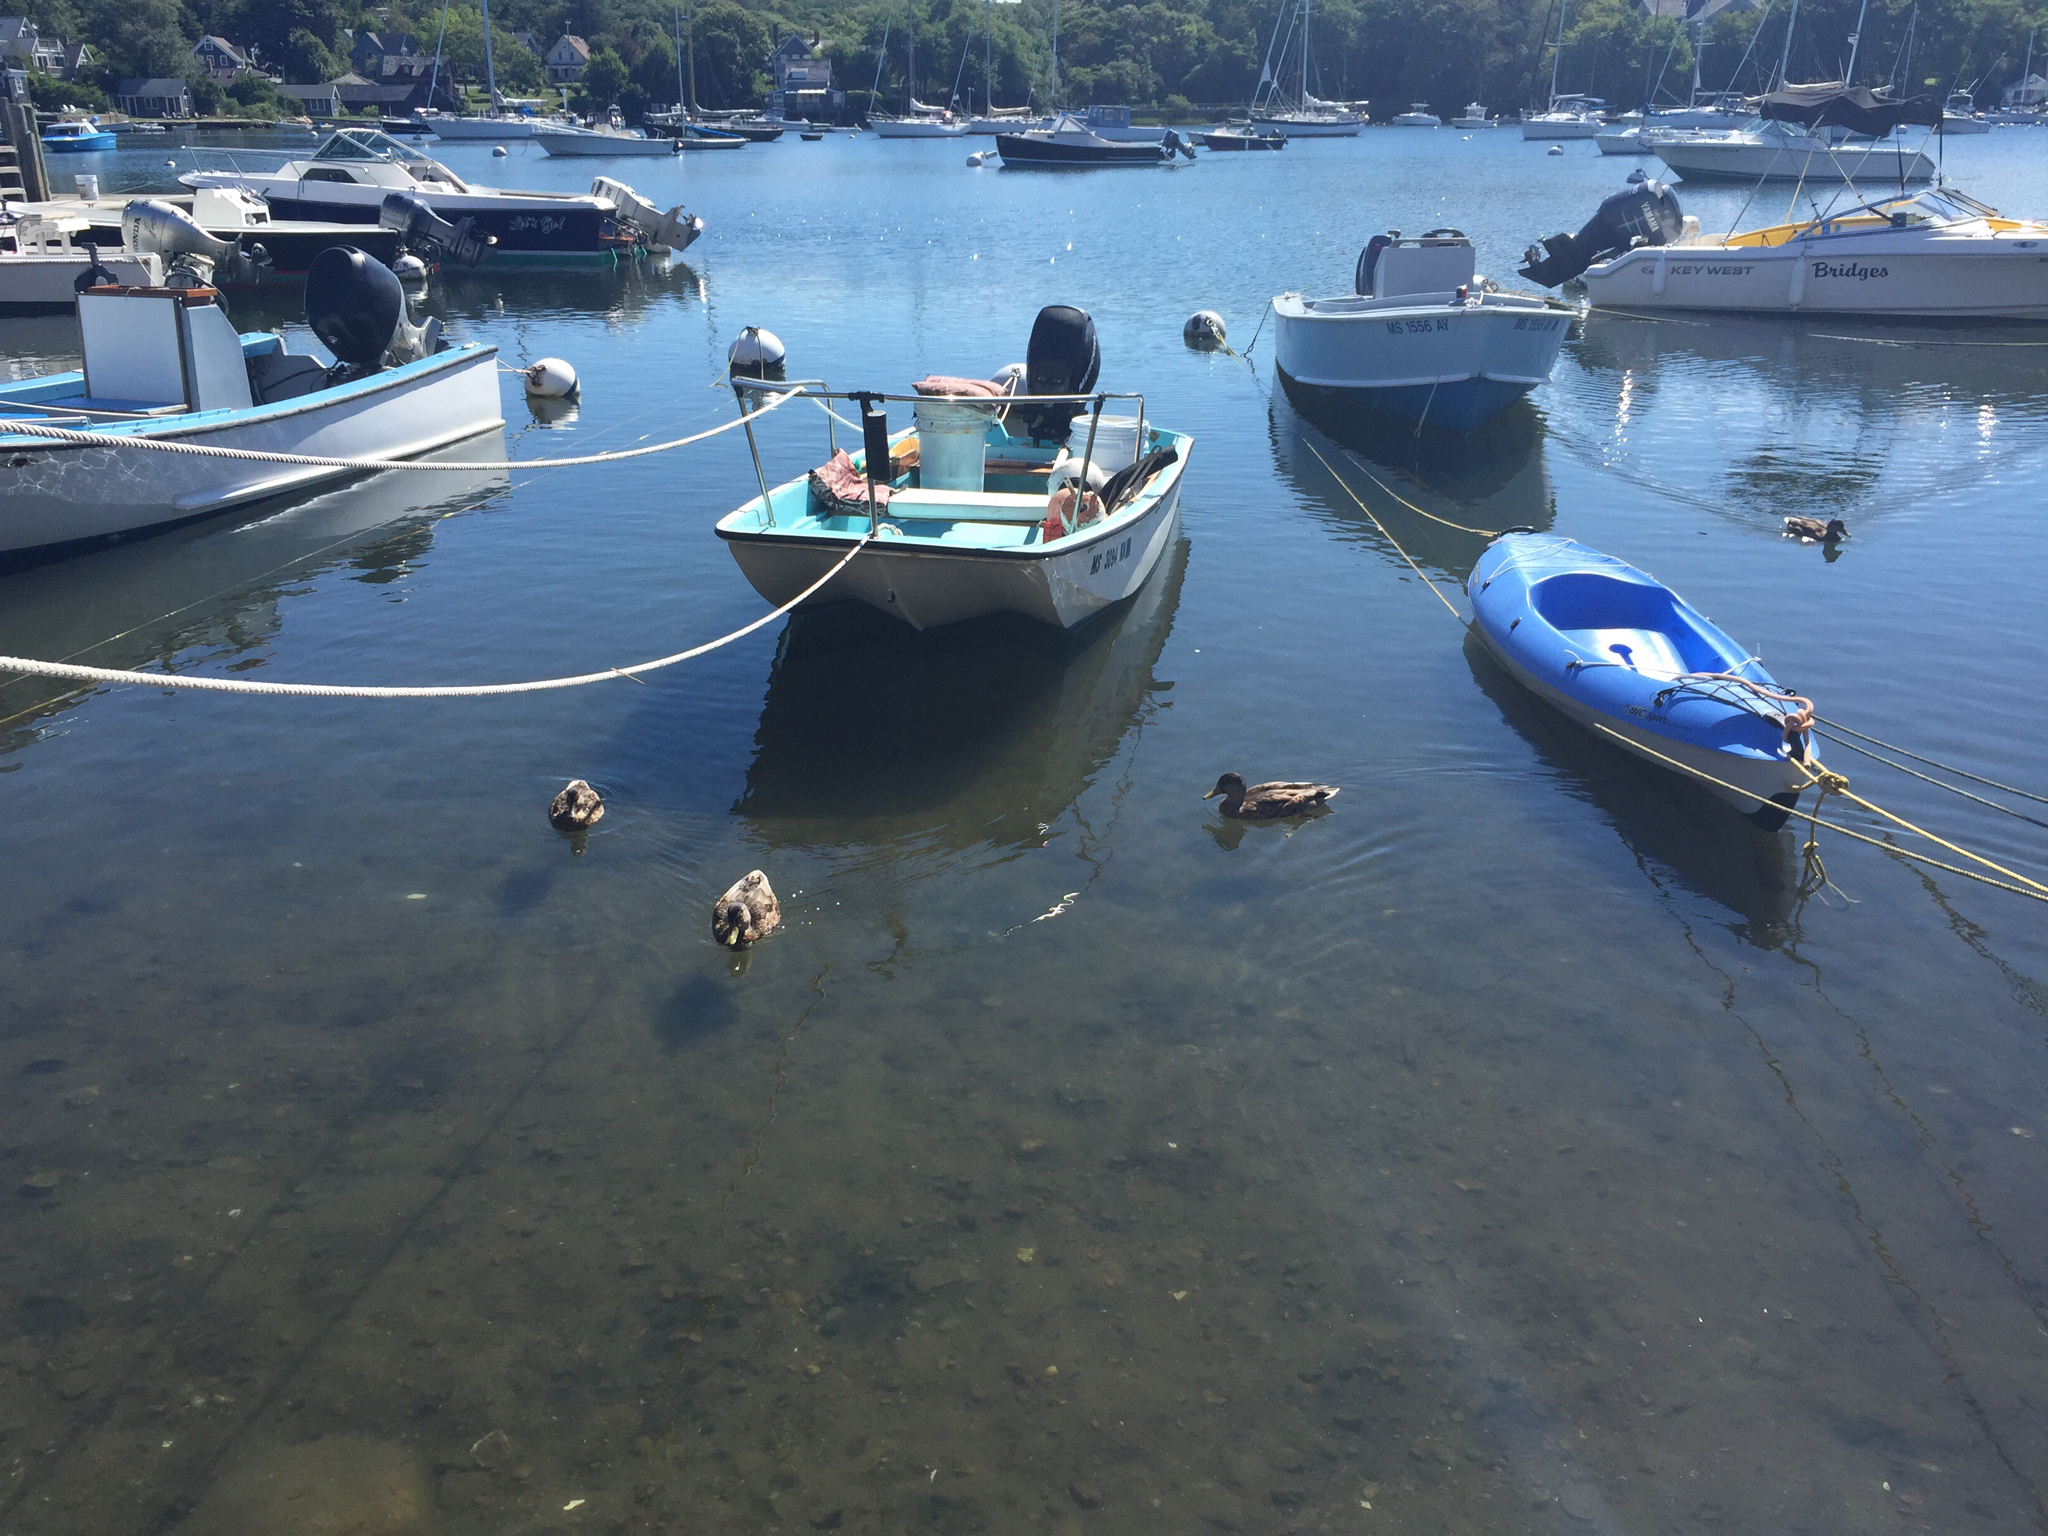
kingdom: Animalia
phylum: Chordata
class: Aves
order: Anseriformes
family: Anatidae
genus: Anas
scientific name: Anas platyrhynchos
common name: Mallard
